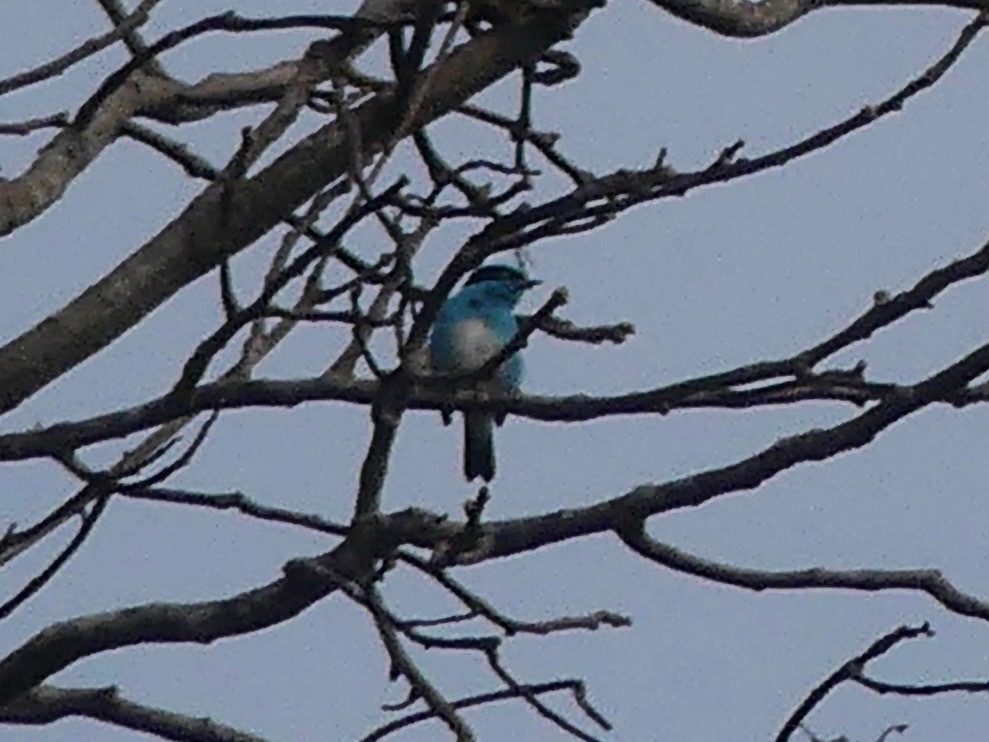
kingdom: Animalia
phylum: Chordata
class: Aves
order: Passeriformes
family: Thraupidae
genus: Dacnis
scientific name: Dacnis lineata
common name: Black-faced dacnis
